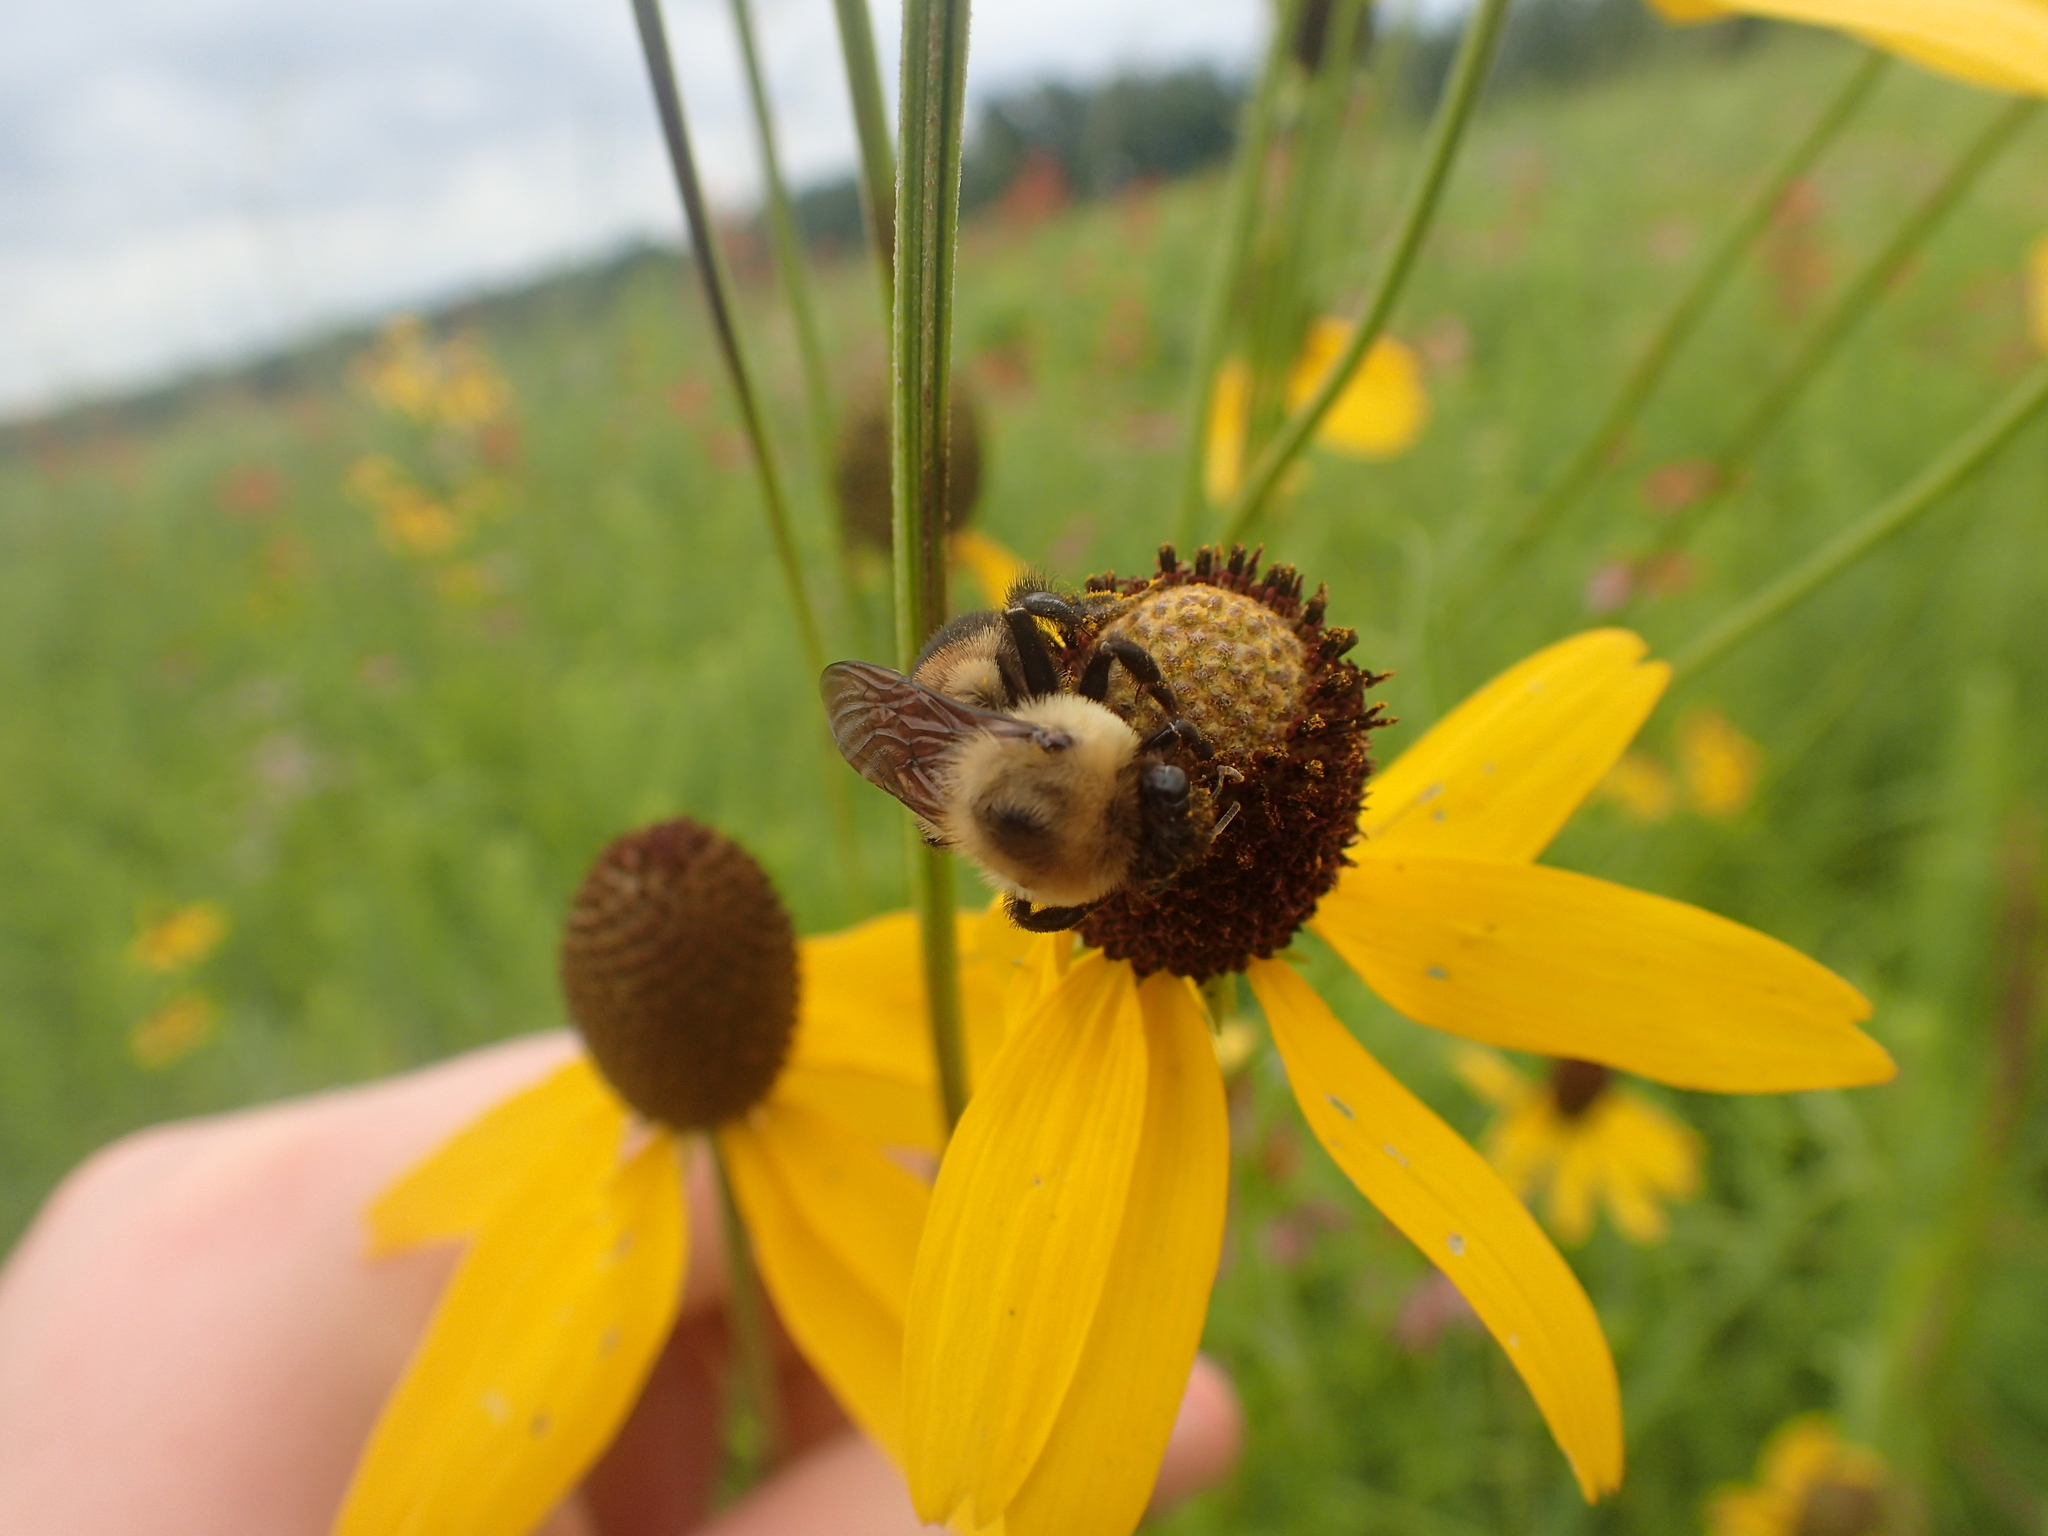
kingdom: Animalia
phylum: Arthropoda
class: Insecta
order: Hymenoptera
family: Apidae
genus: Bombus
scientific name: Bombus griseocollis
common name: Brown-belted bumble bee
